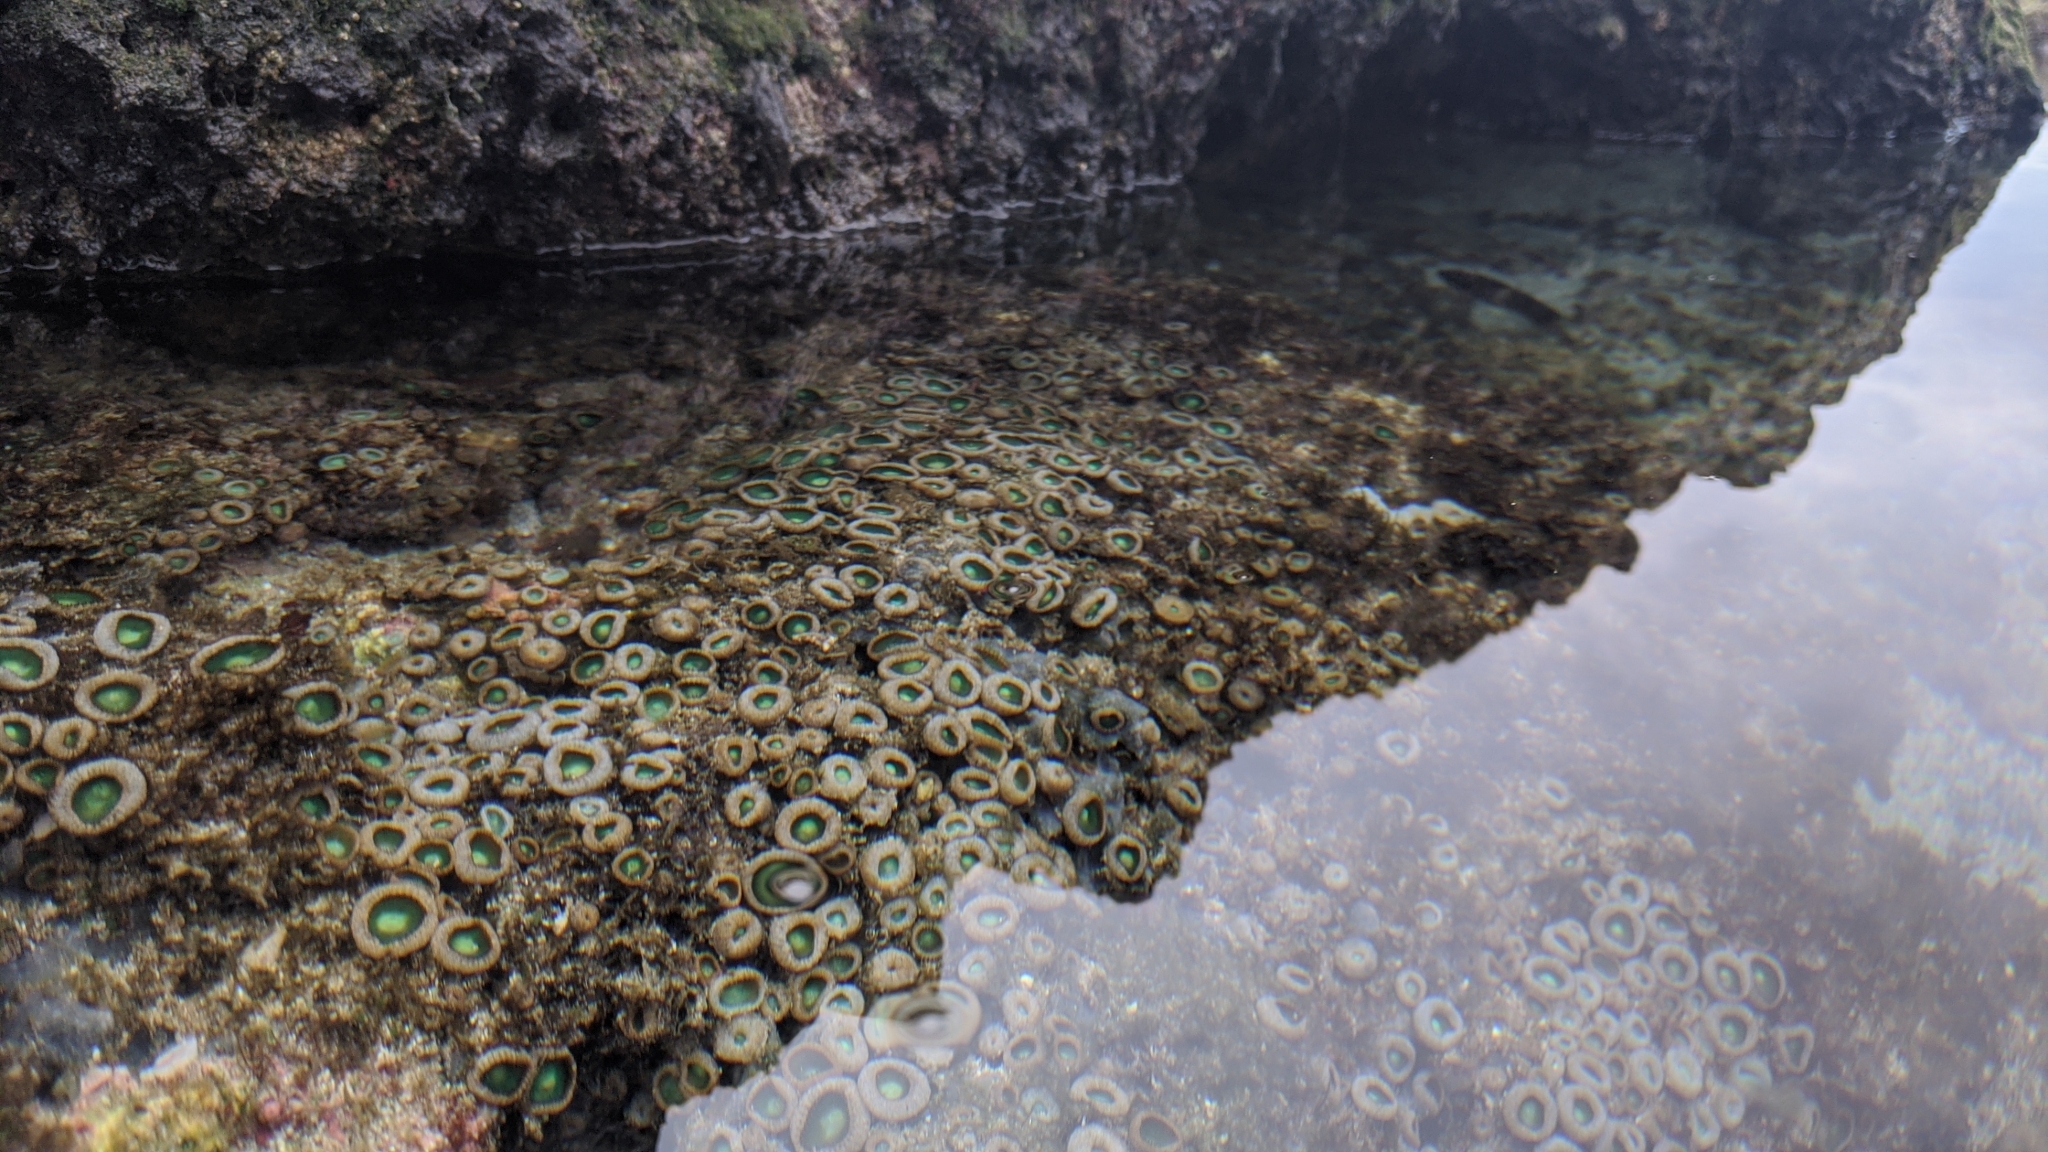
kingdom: Animalia
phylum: Cnidaria
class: Anthozoa
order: Zoantharia
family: Sphenopidae
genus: Palythoa
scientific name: Palythoa mutuki
